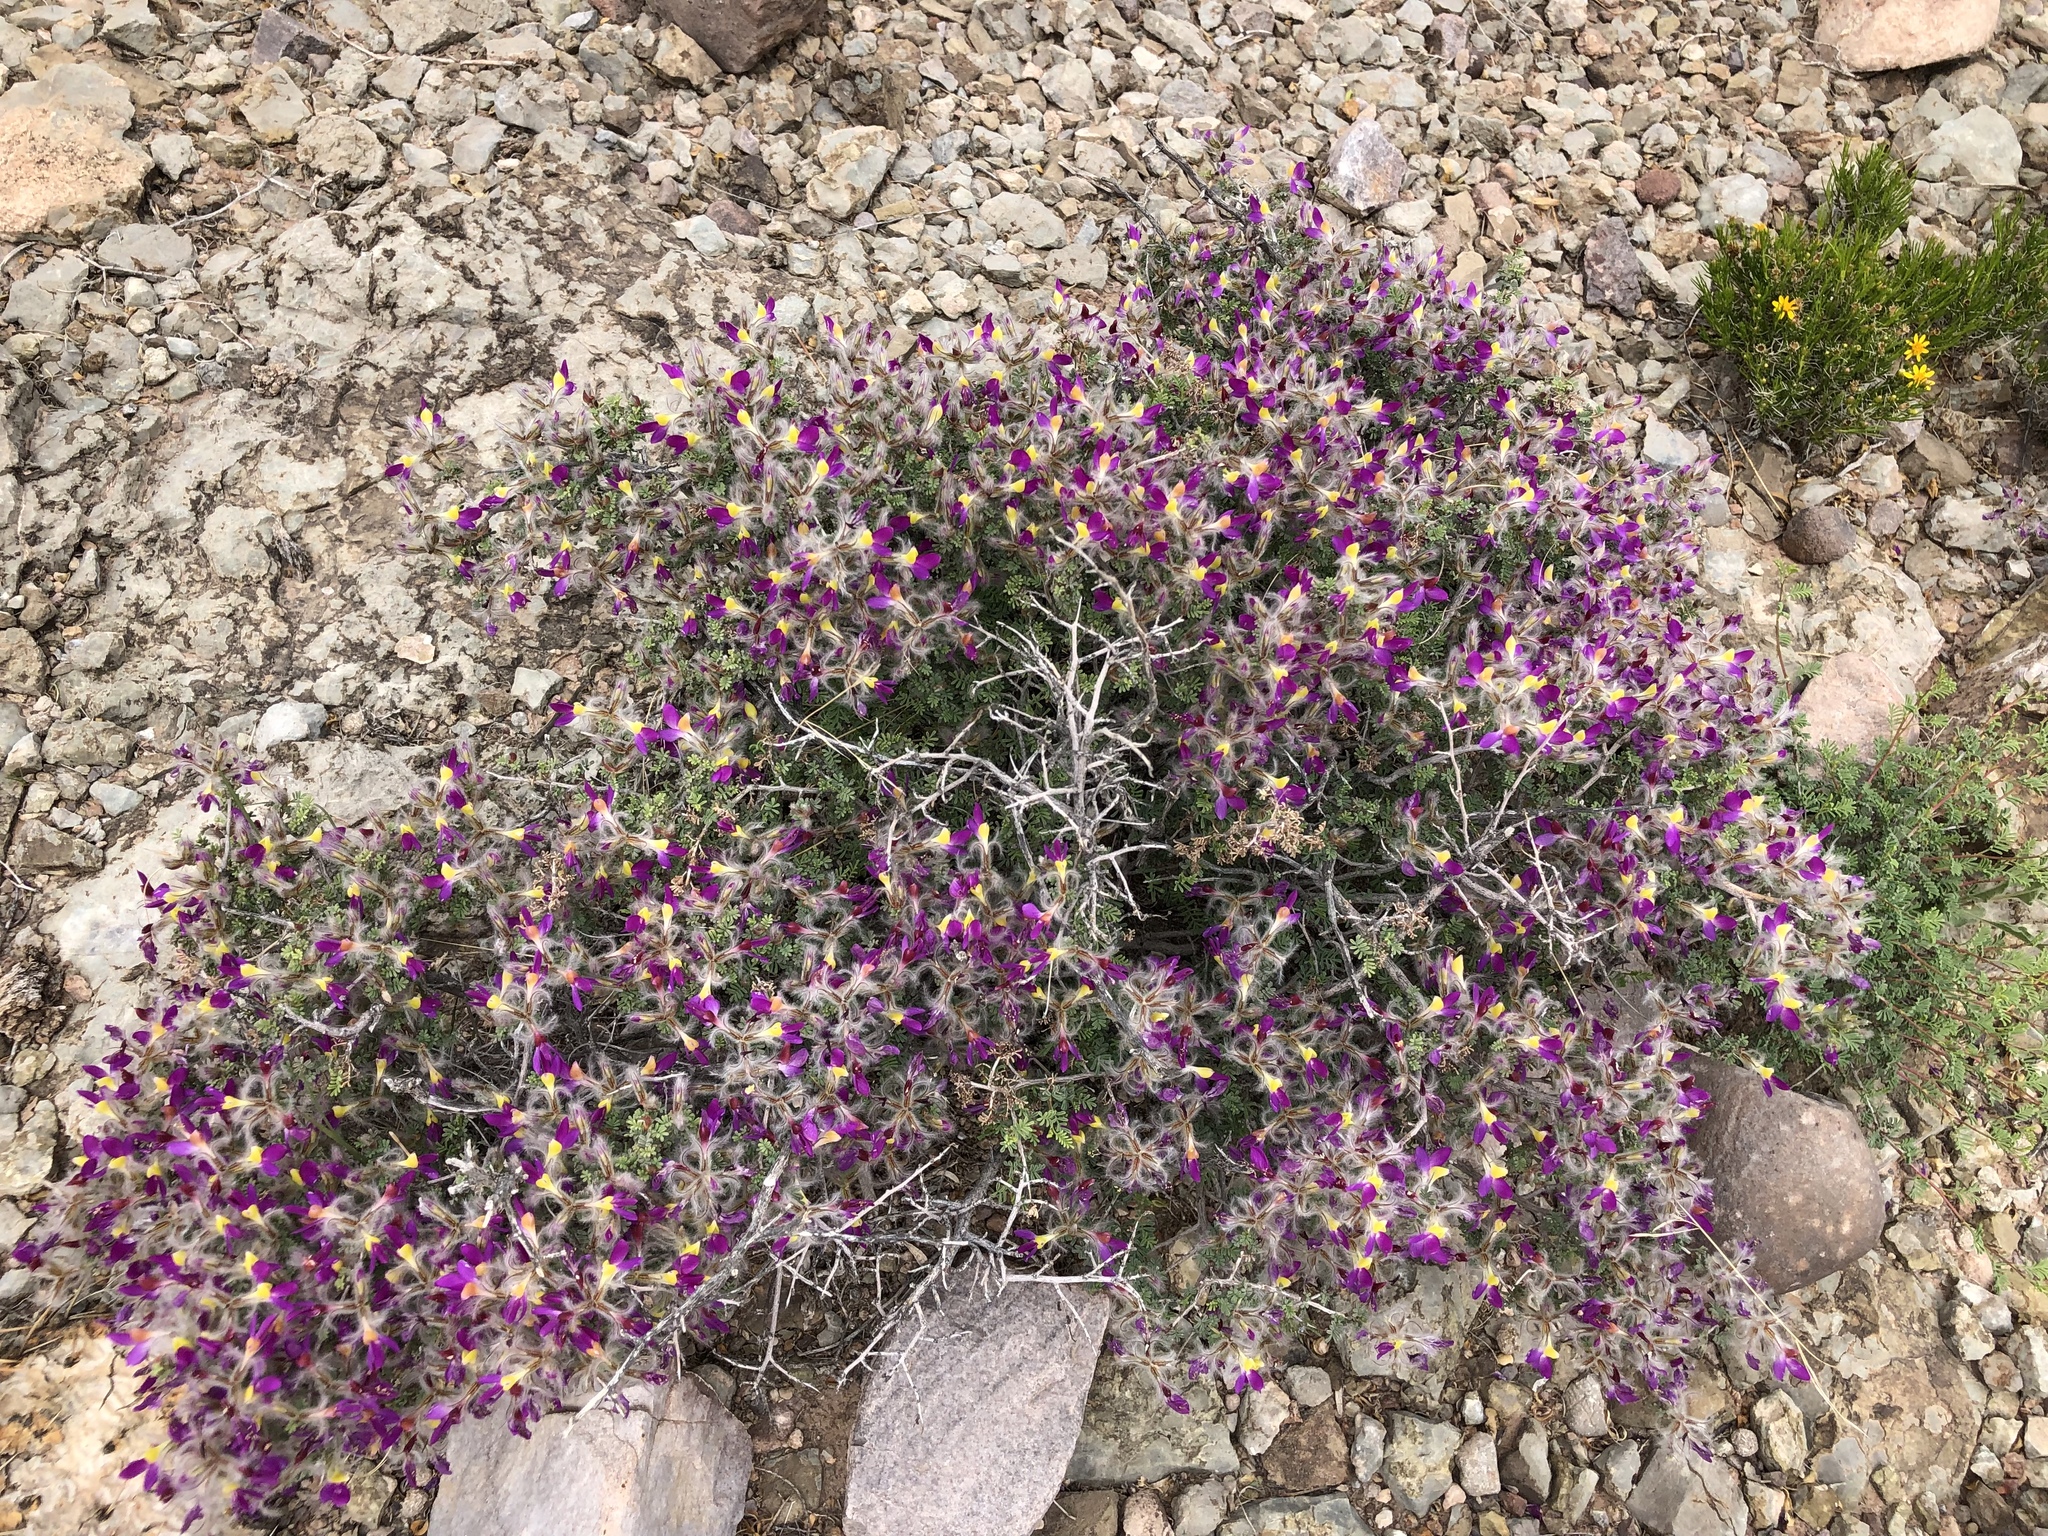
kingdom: Plantae
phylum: Tracheophyta
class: Magnoliopsida
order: Fabales
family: Fabaceae
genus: Dalea
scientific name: Dalea formosa
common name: Feather-plume dalea
